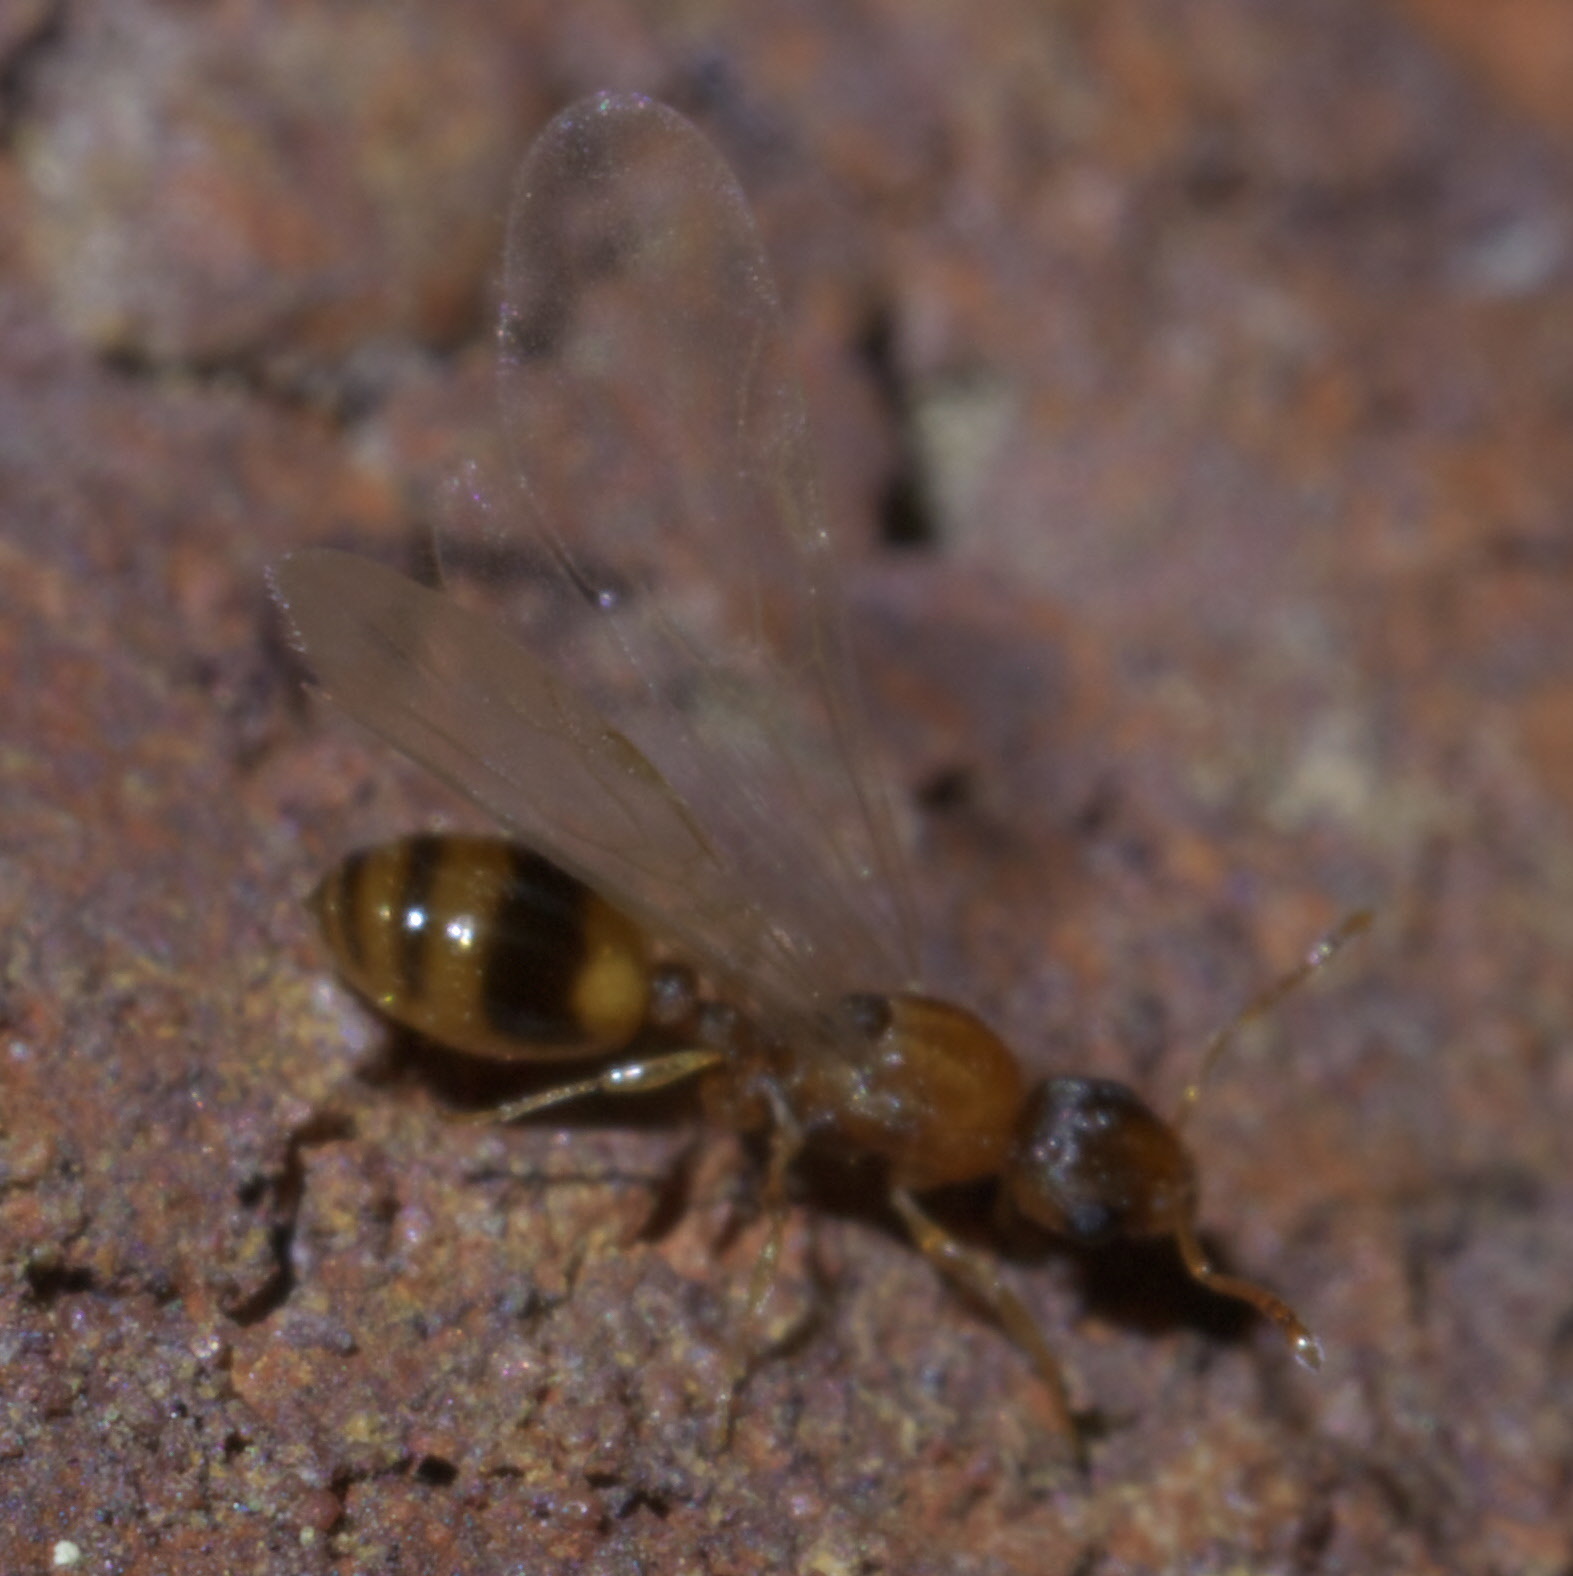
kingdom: Animalia
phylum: Arthropoda
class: Insecta
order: Hymenoptera
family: Formicidae
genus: Temnothorax
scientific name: Temnothorax curvispinosus
